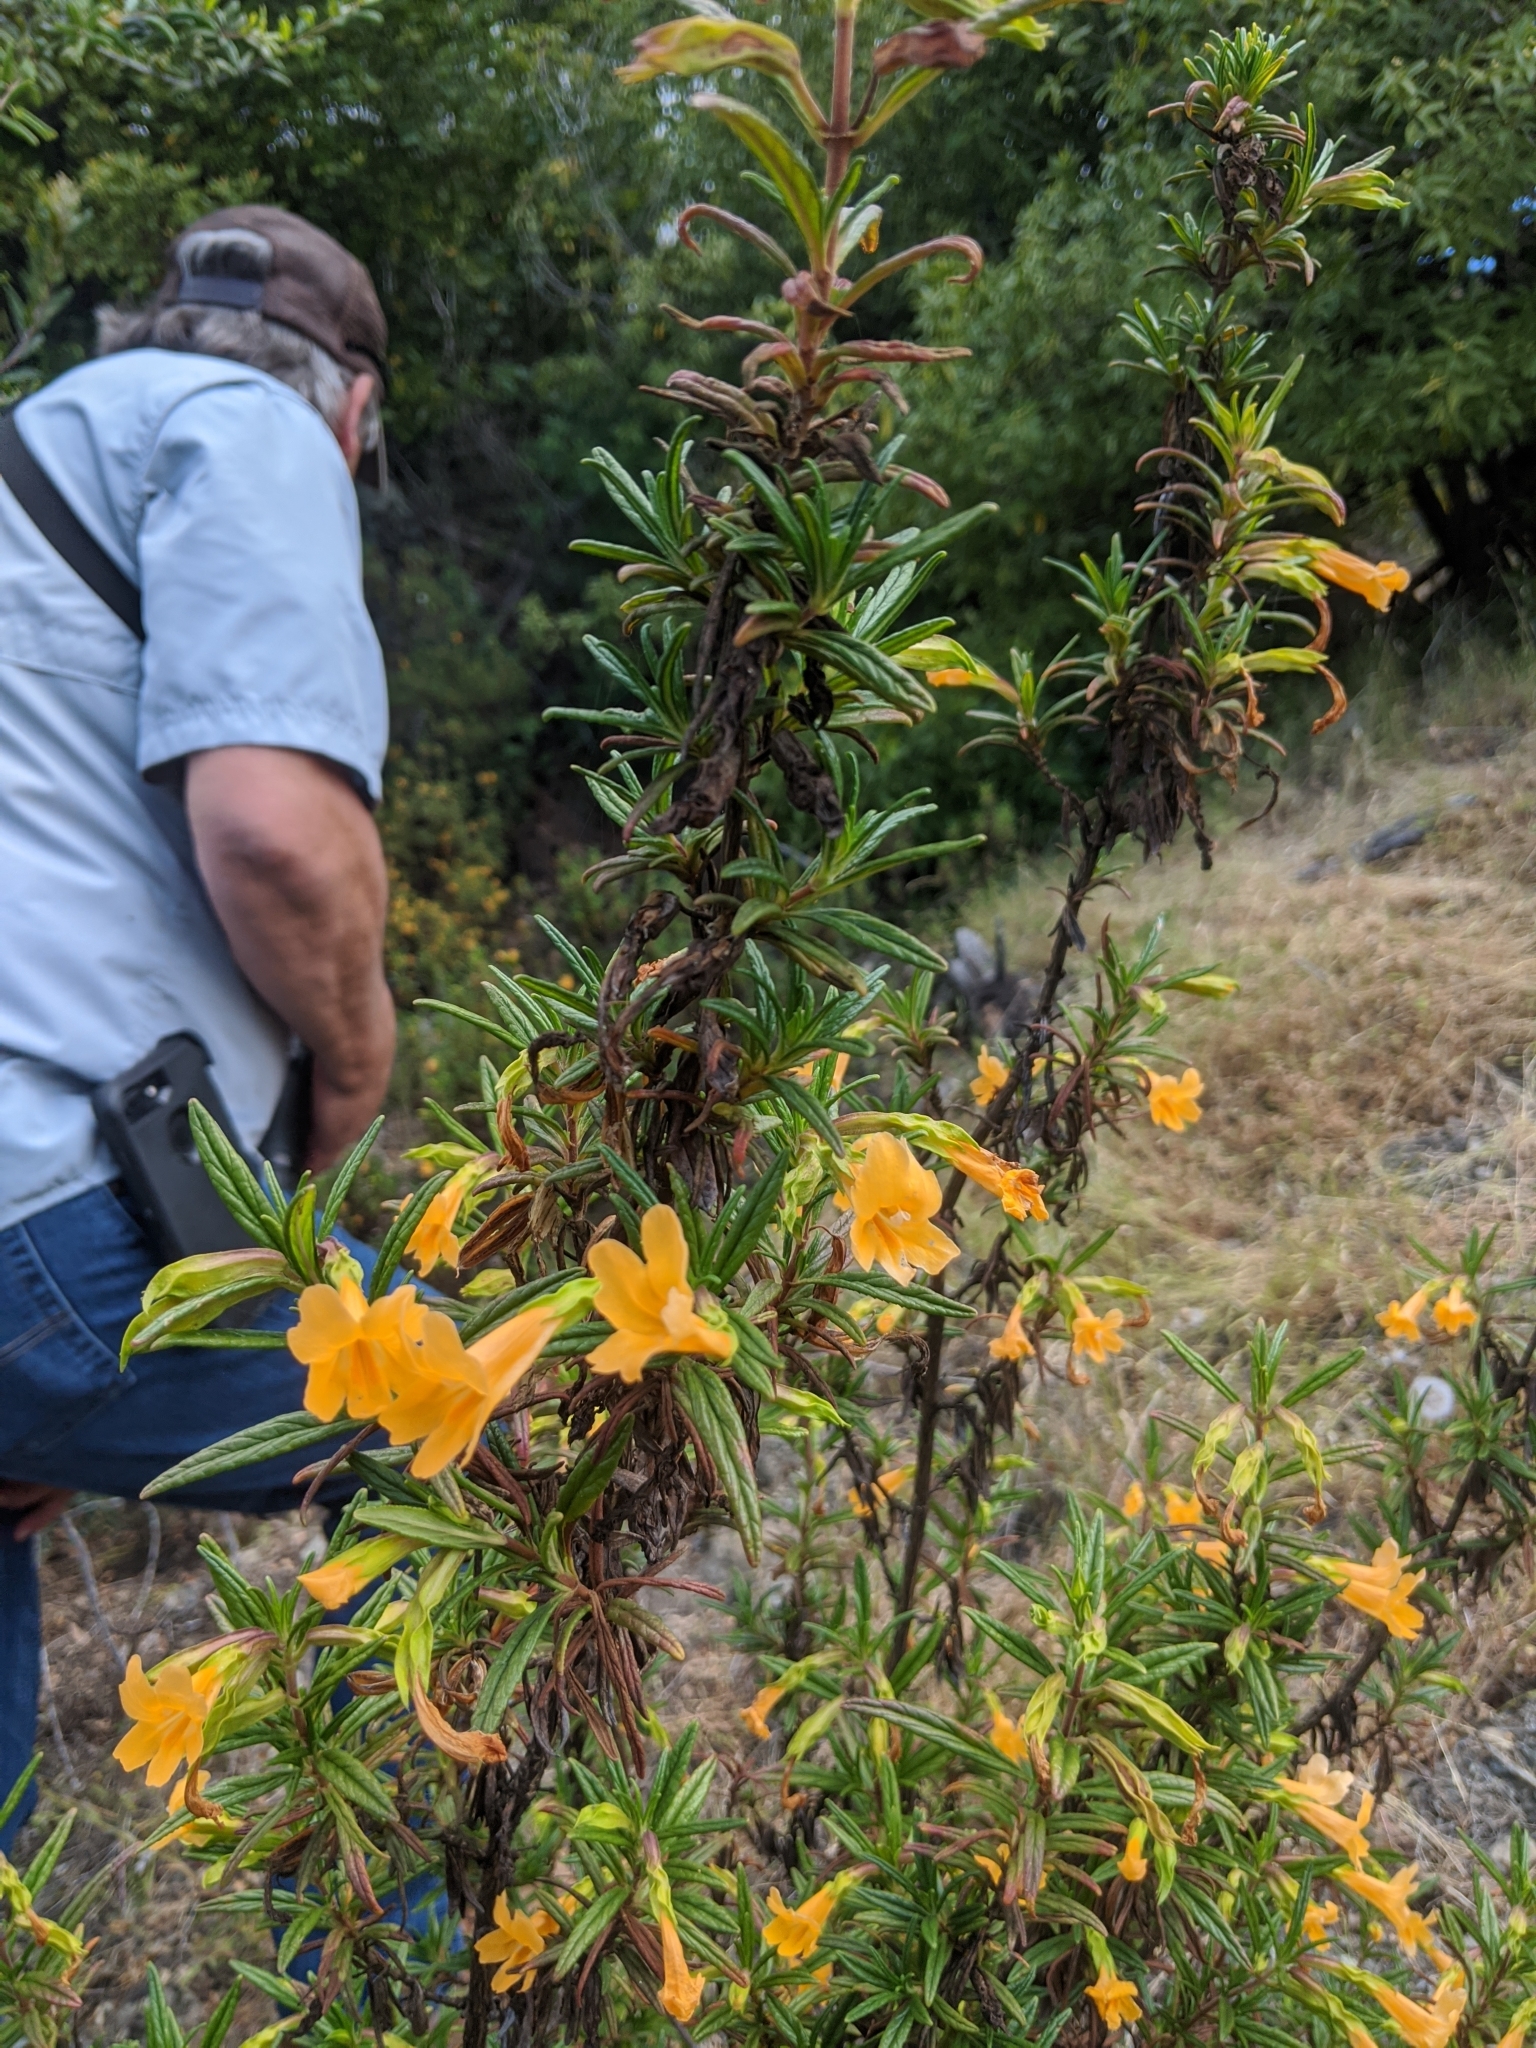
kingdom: Plantae
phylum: Tracheophyta
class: Magnoliopsida
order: Lamiales
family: Phrymaceae
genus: Diplacus
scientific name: Diplacus aurantiacus
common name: Bush monkey-flower
